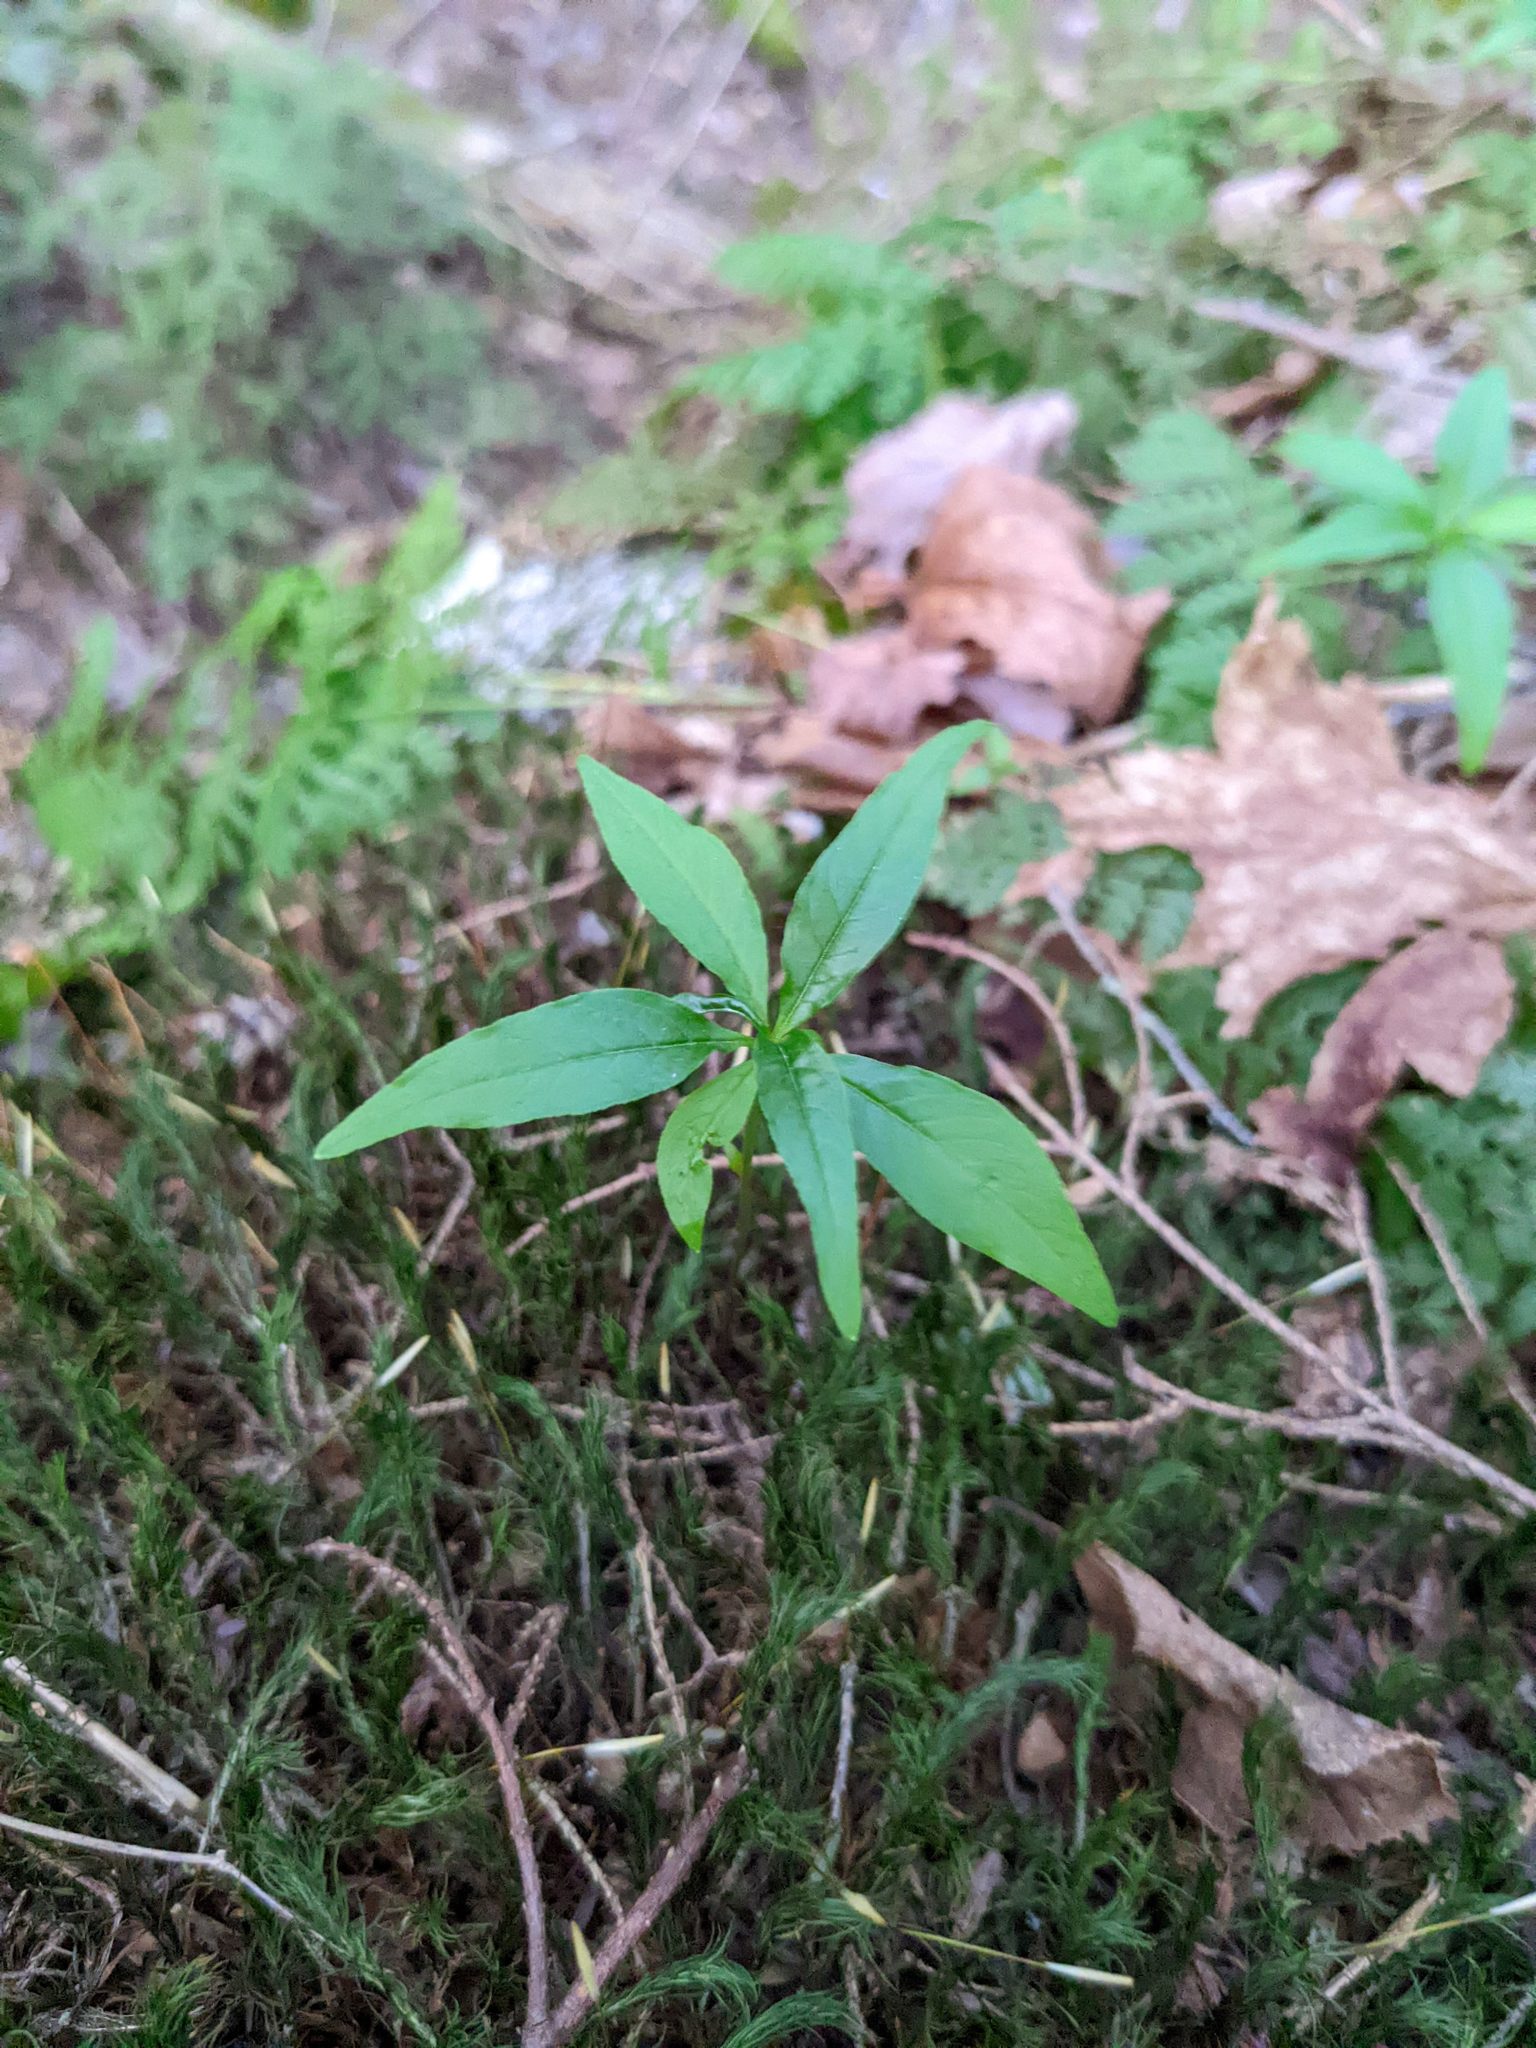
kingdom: Plantae
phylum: Tracheophyta
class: Magnoliopsida
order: Ericales
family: Primulaceae
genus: Lysimachia
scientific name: Lysimachia borealis
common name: American starflower
